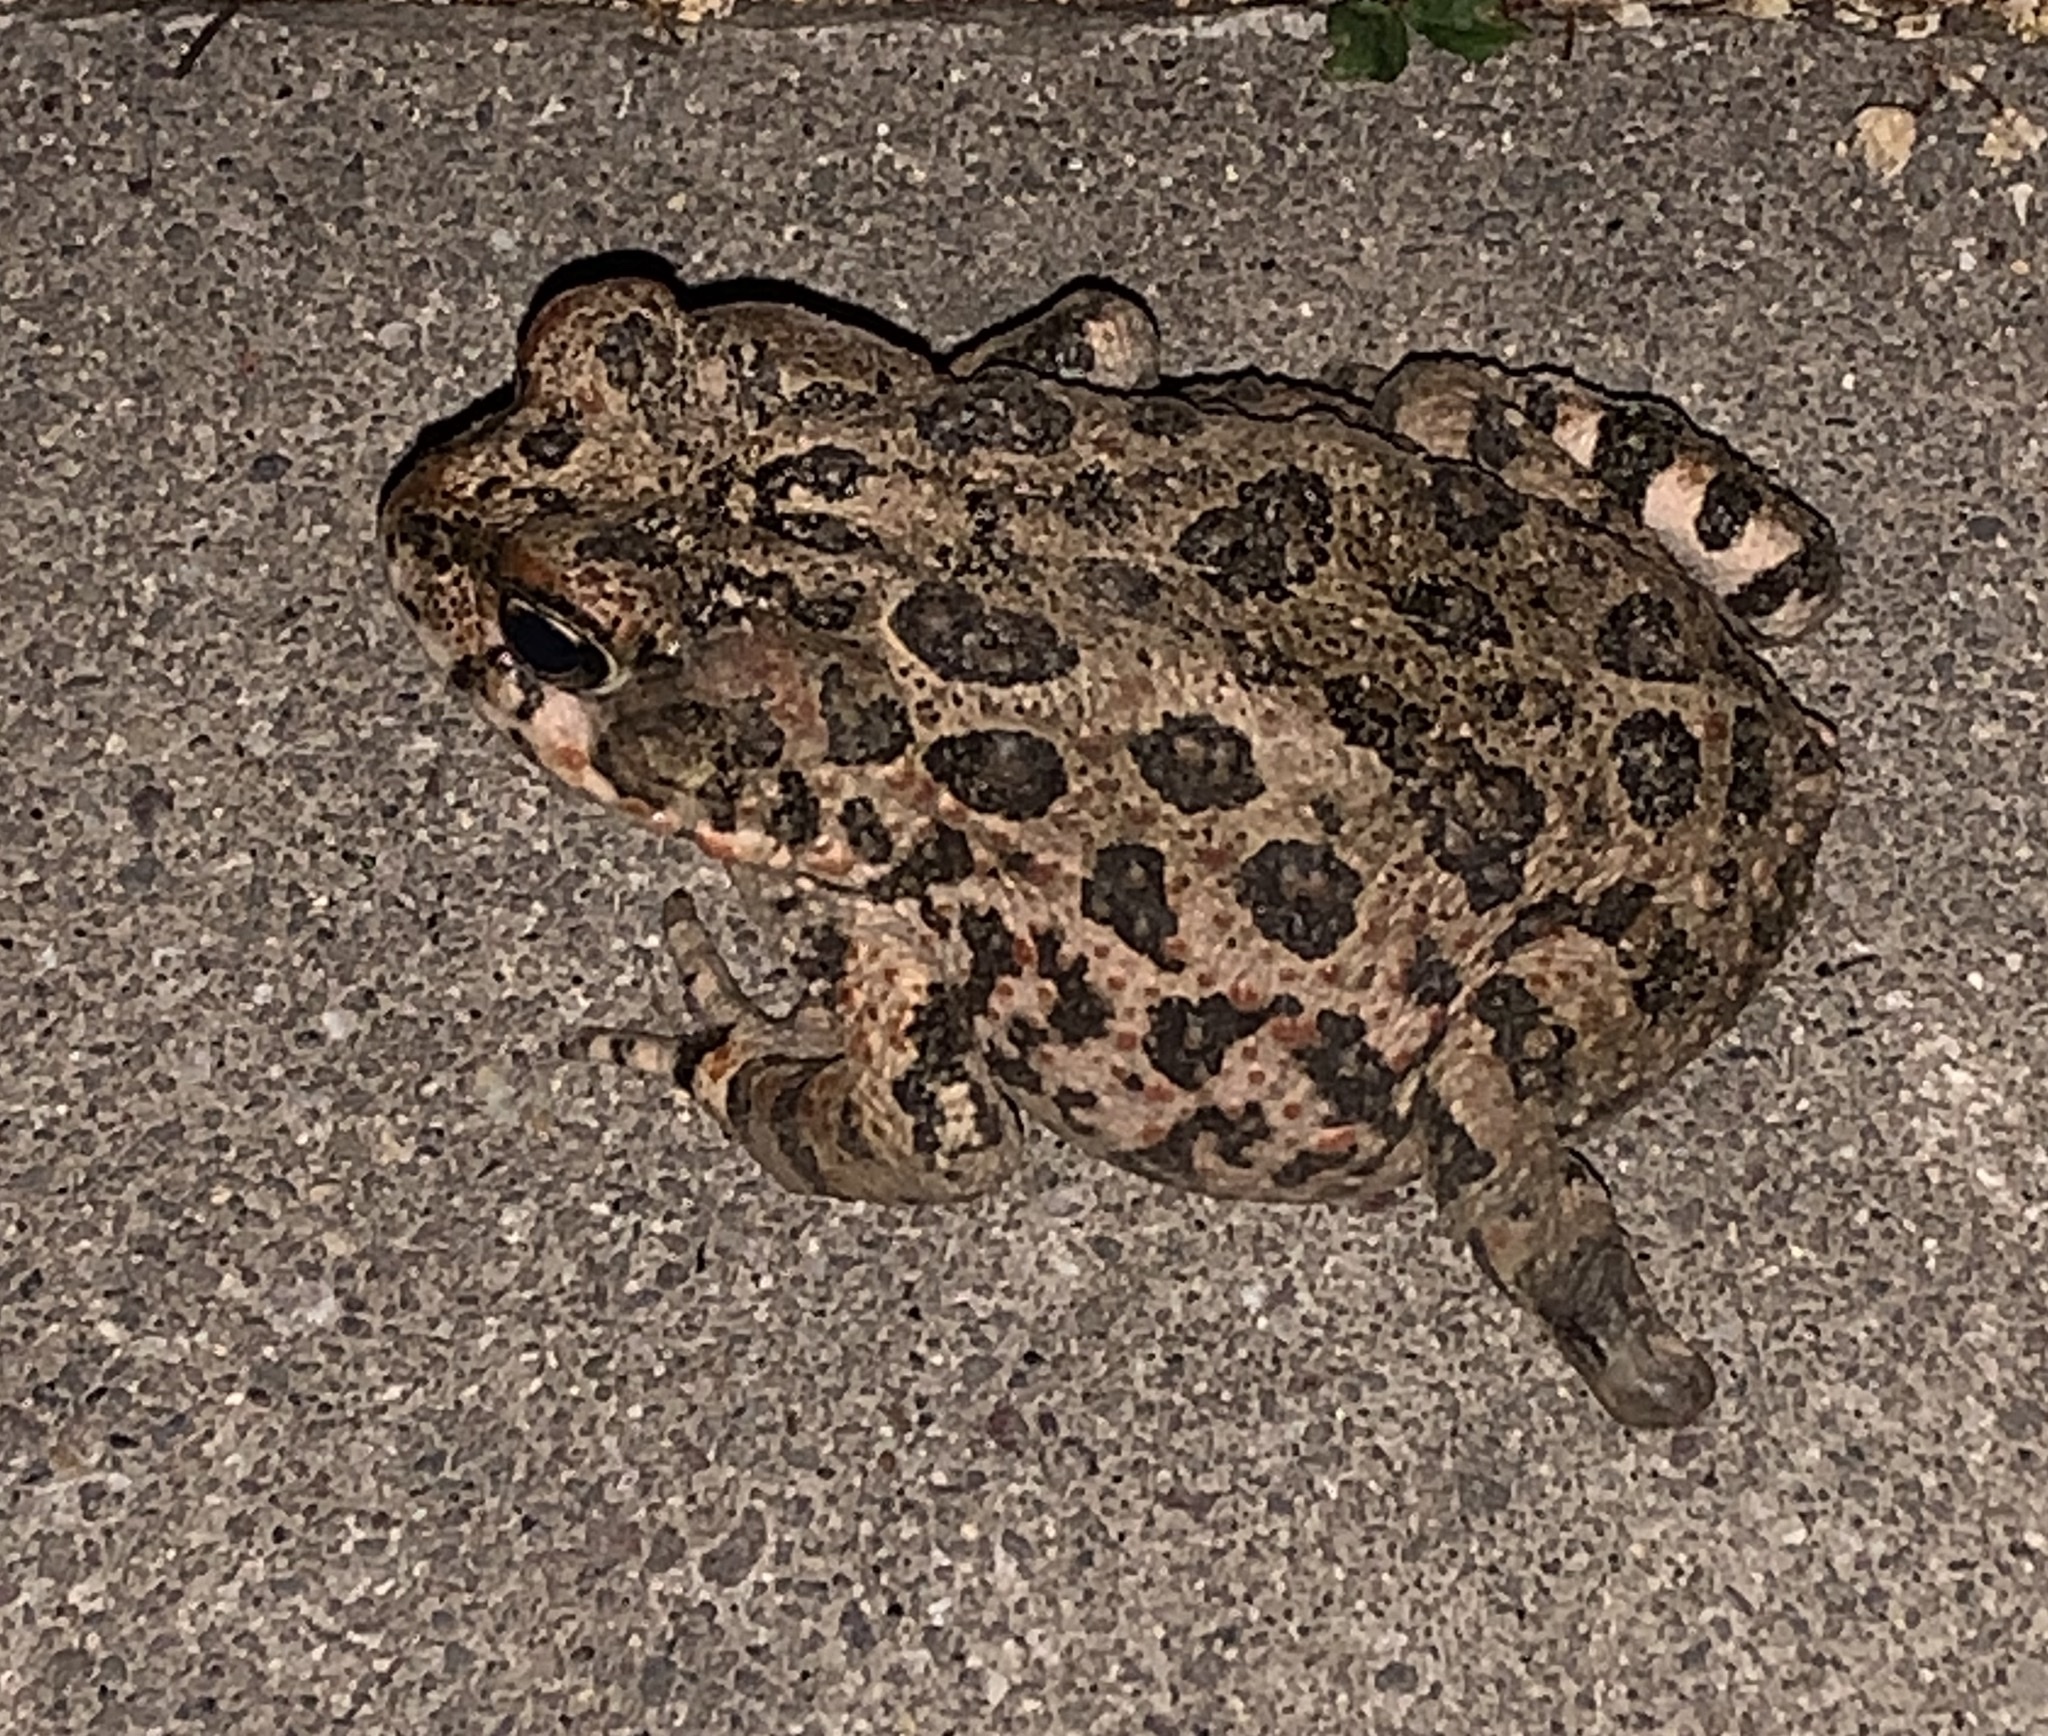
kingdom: Animalia
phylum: Chordata
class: Amphibia
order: Anura
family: Bufonidae
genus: Anaxyrus
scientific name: Anaxyrus boreas
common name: Western toad
